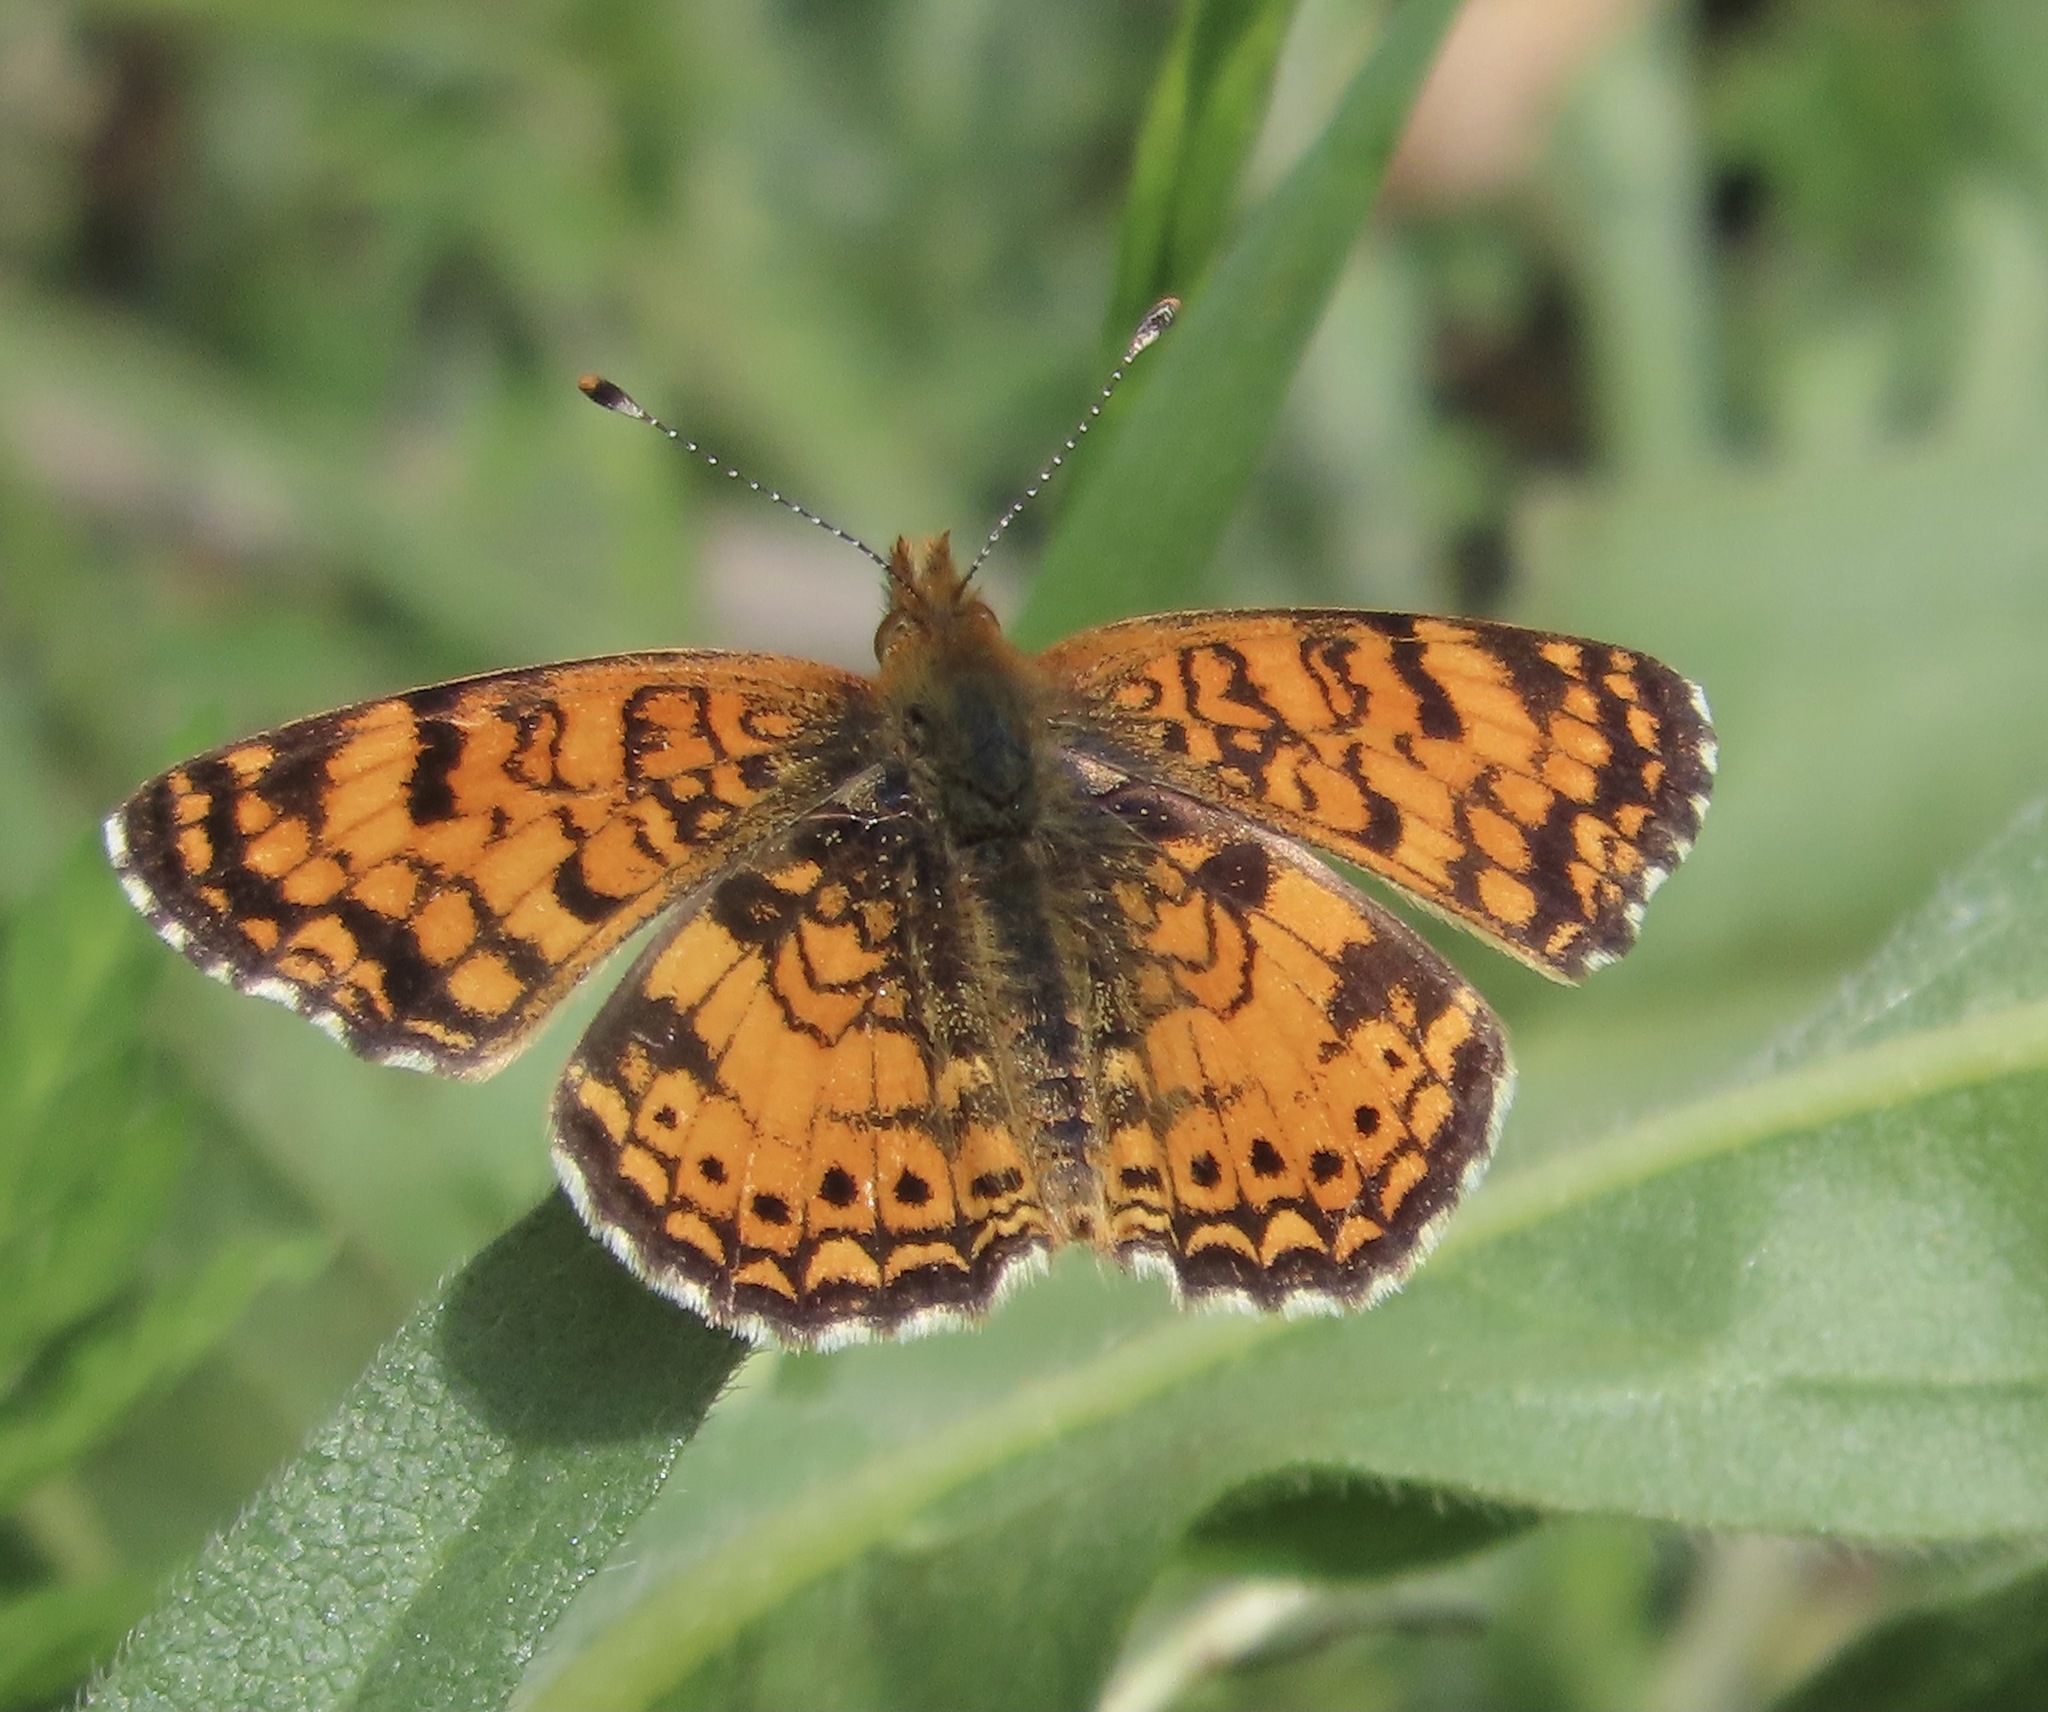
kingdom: Animalia
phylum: Arthropoda
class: Insecta
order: Lepidoptera
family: Nymphalidae
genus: Eresia
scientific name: Eresia aveyrona
